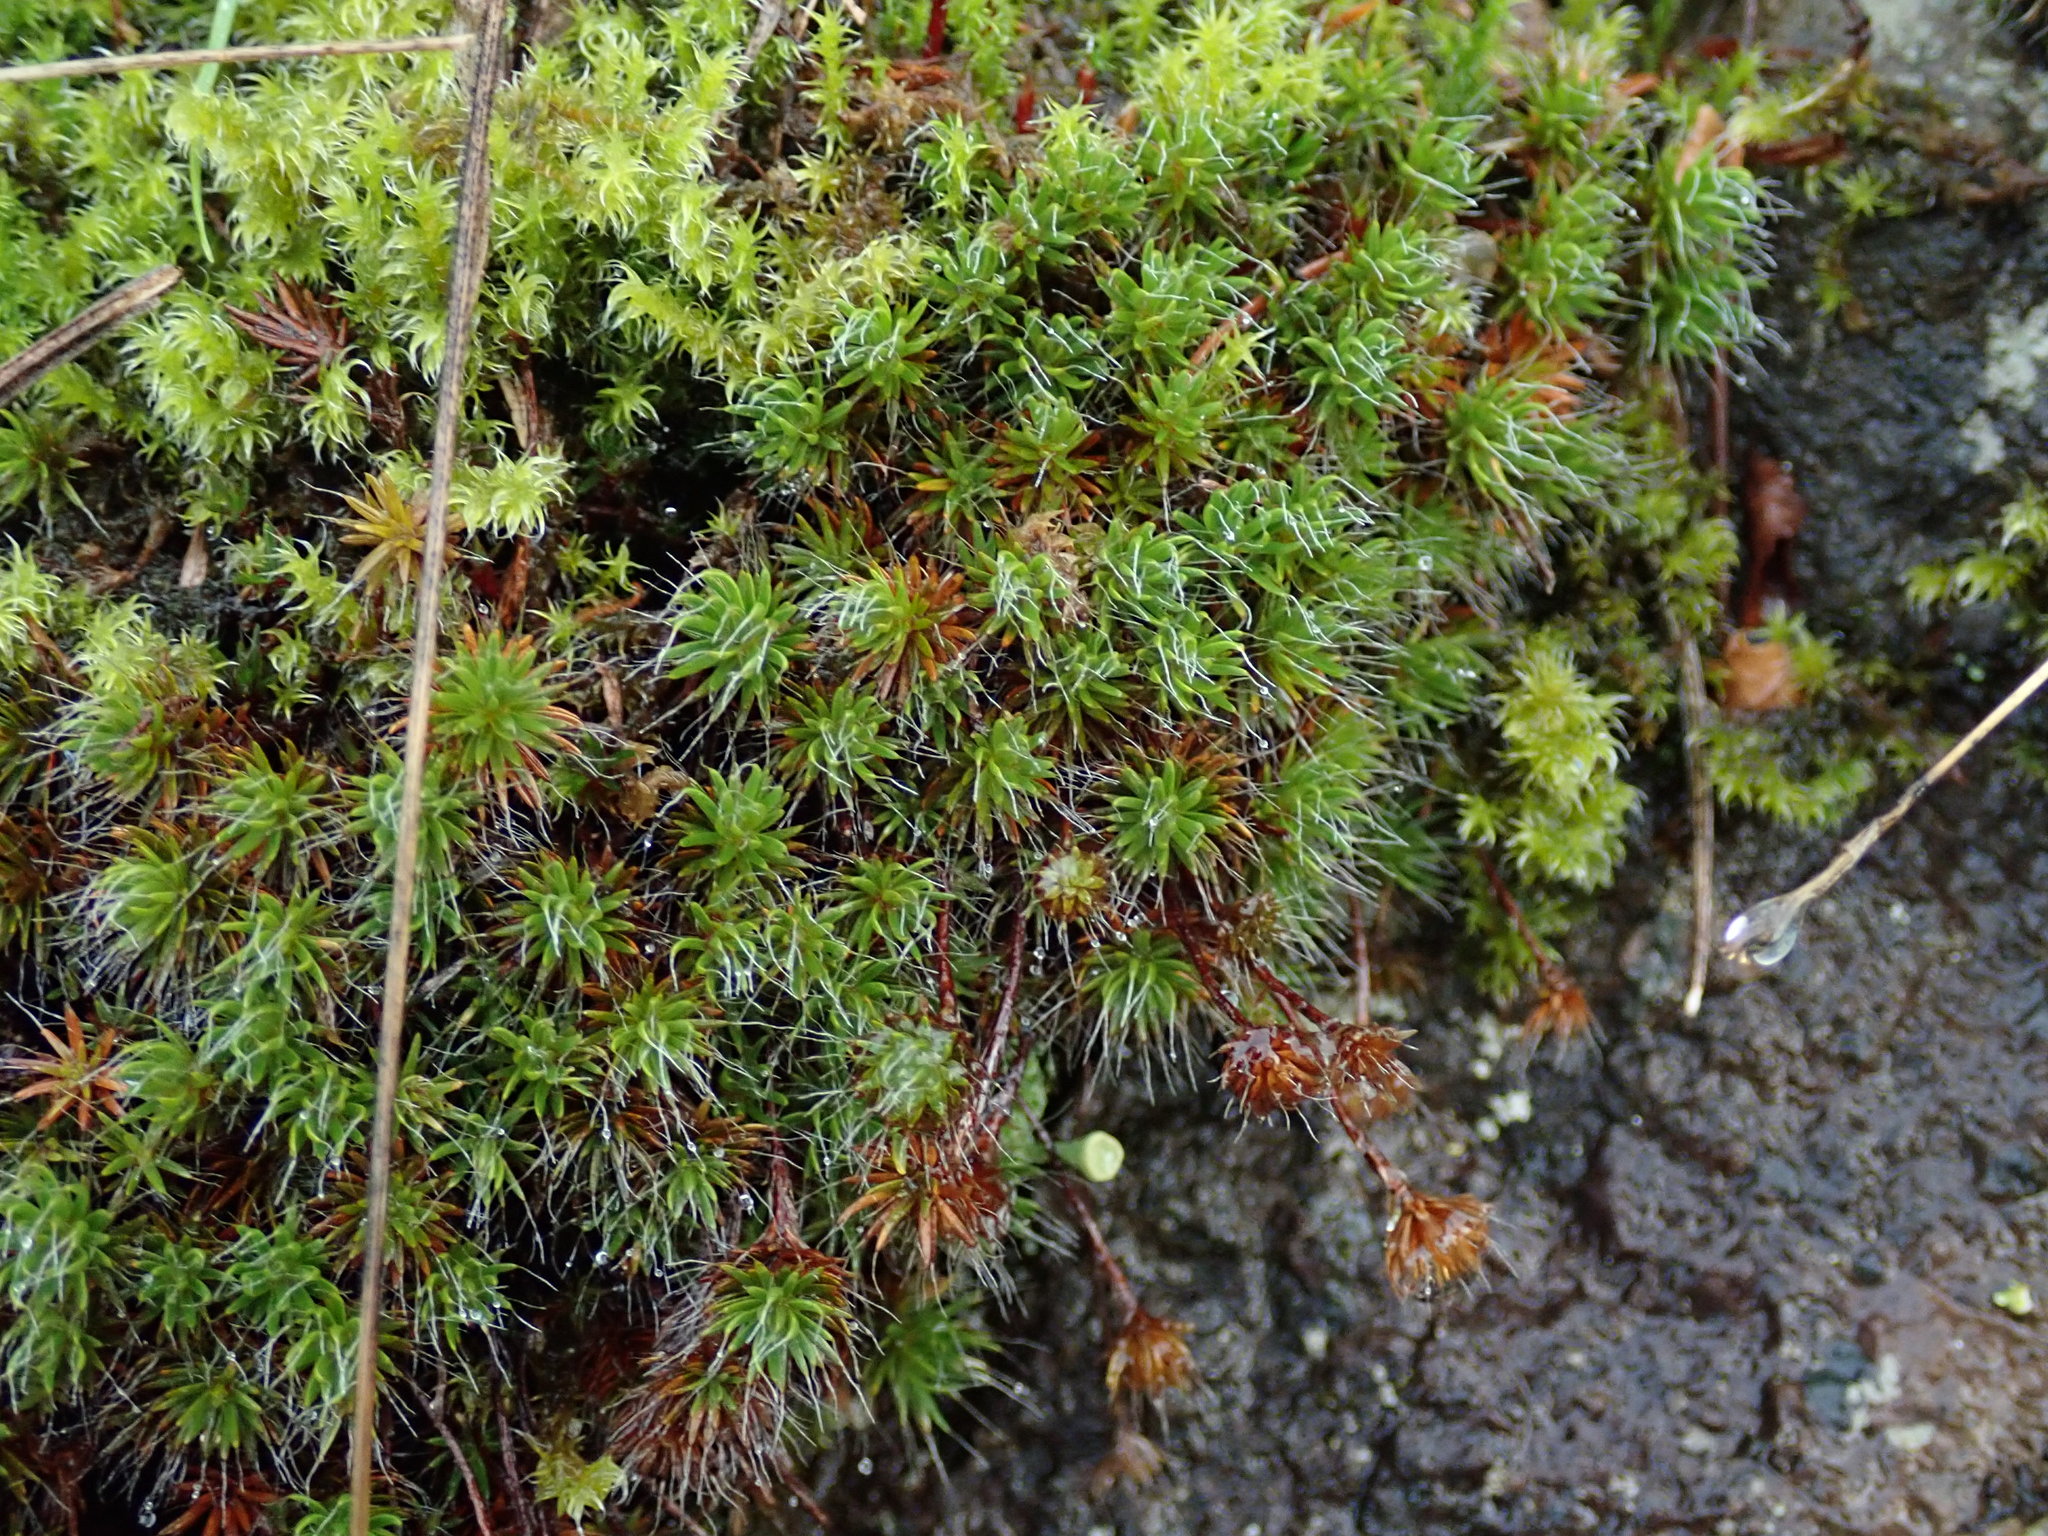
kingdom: Plantae
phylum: Bryophyta
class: Polytrichopsida
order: Polytrichales
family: Polytrichaceae
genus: Polytrichum
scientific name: Polytrichum piliferum
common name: Bristly haircap
